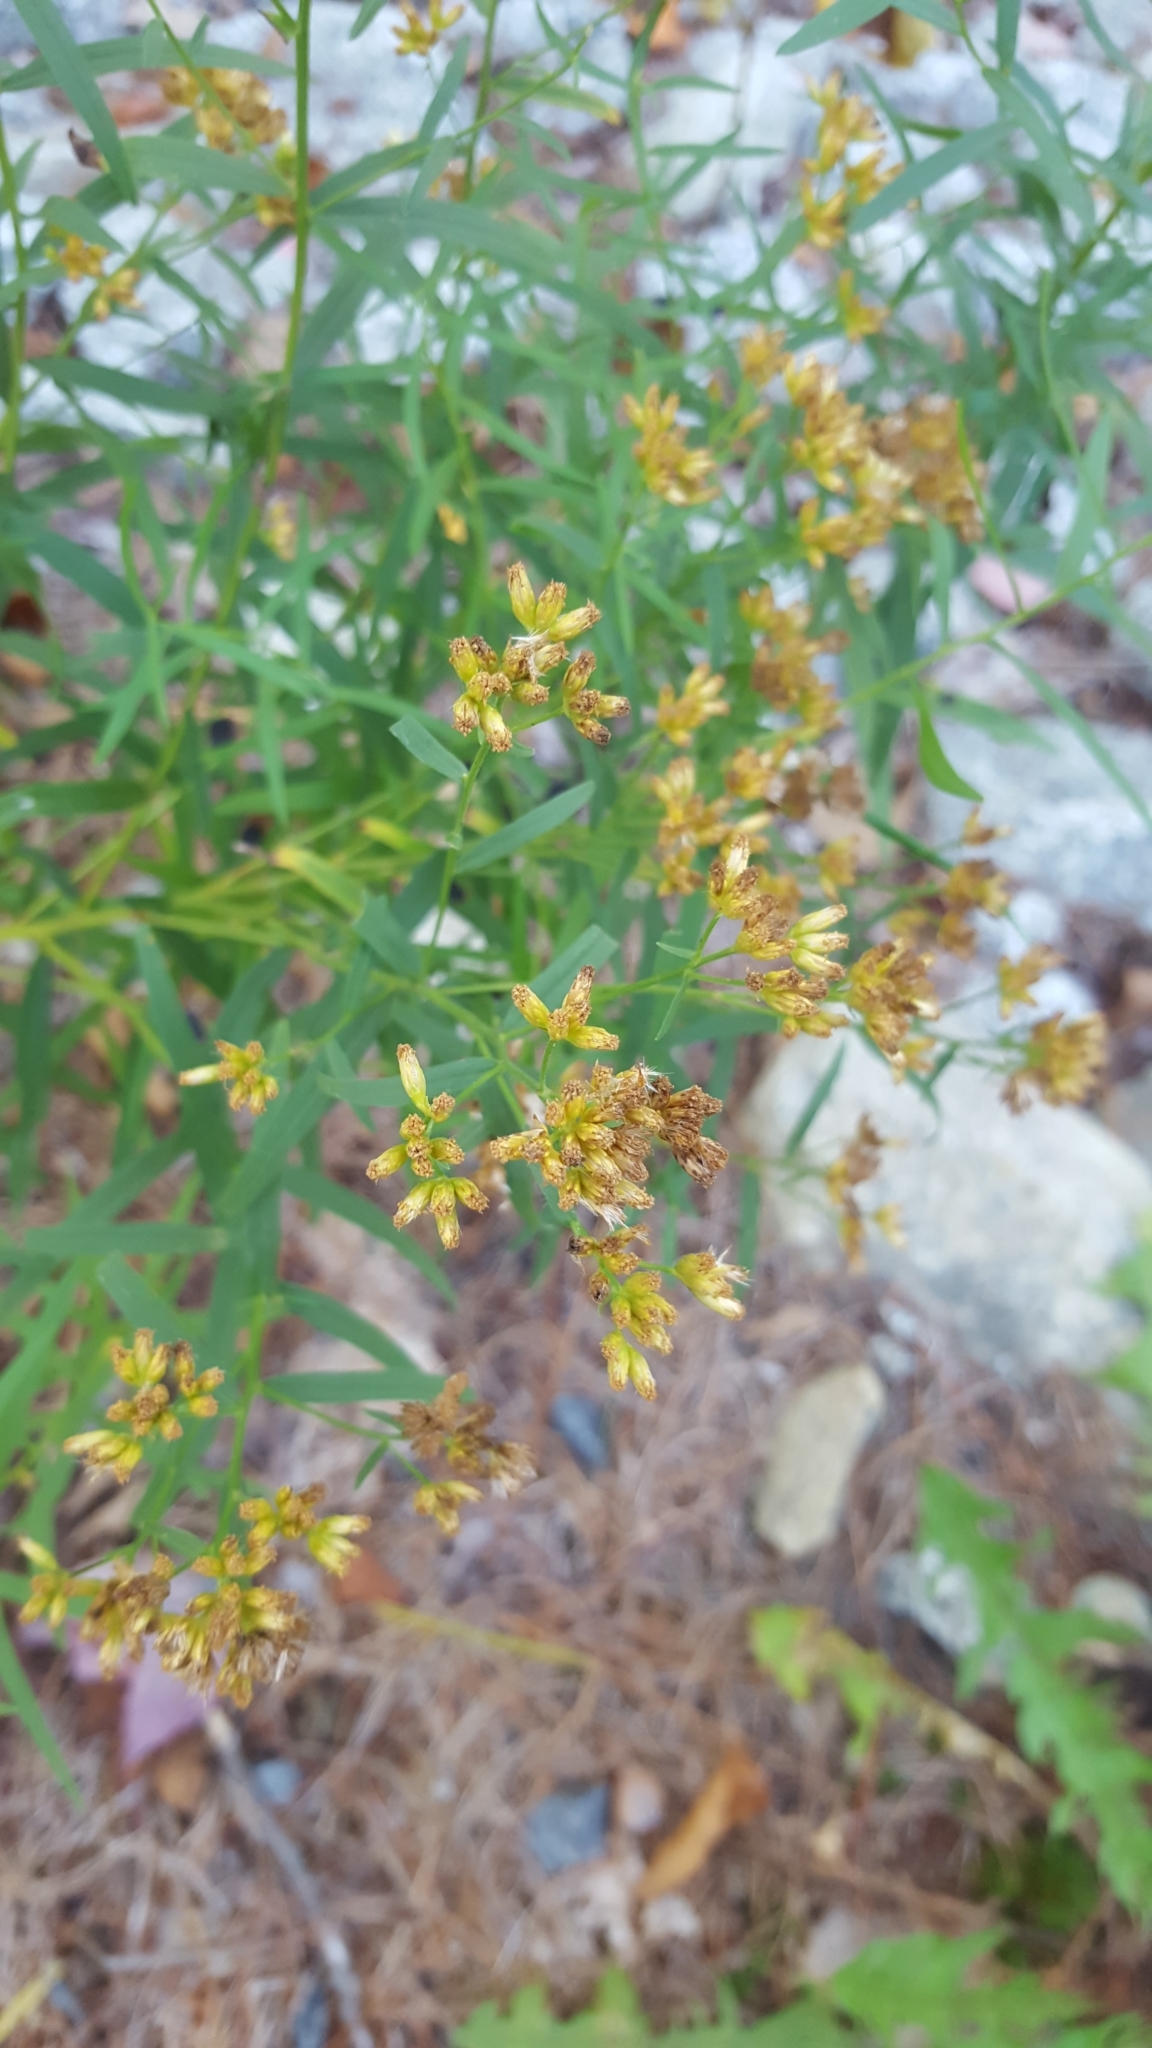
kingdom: Plantae
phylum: Tracheophyta
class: Magnoliopsida
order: Asterales
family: Asteraceae
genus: Euthamia
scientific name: Euthamia graminifolia
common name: Common goldentop
